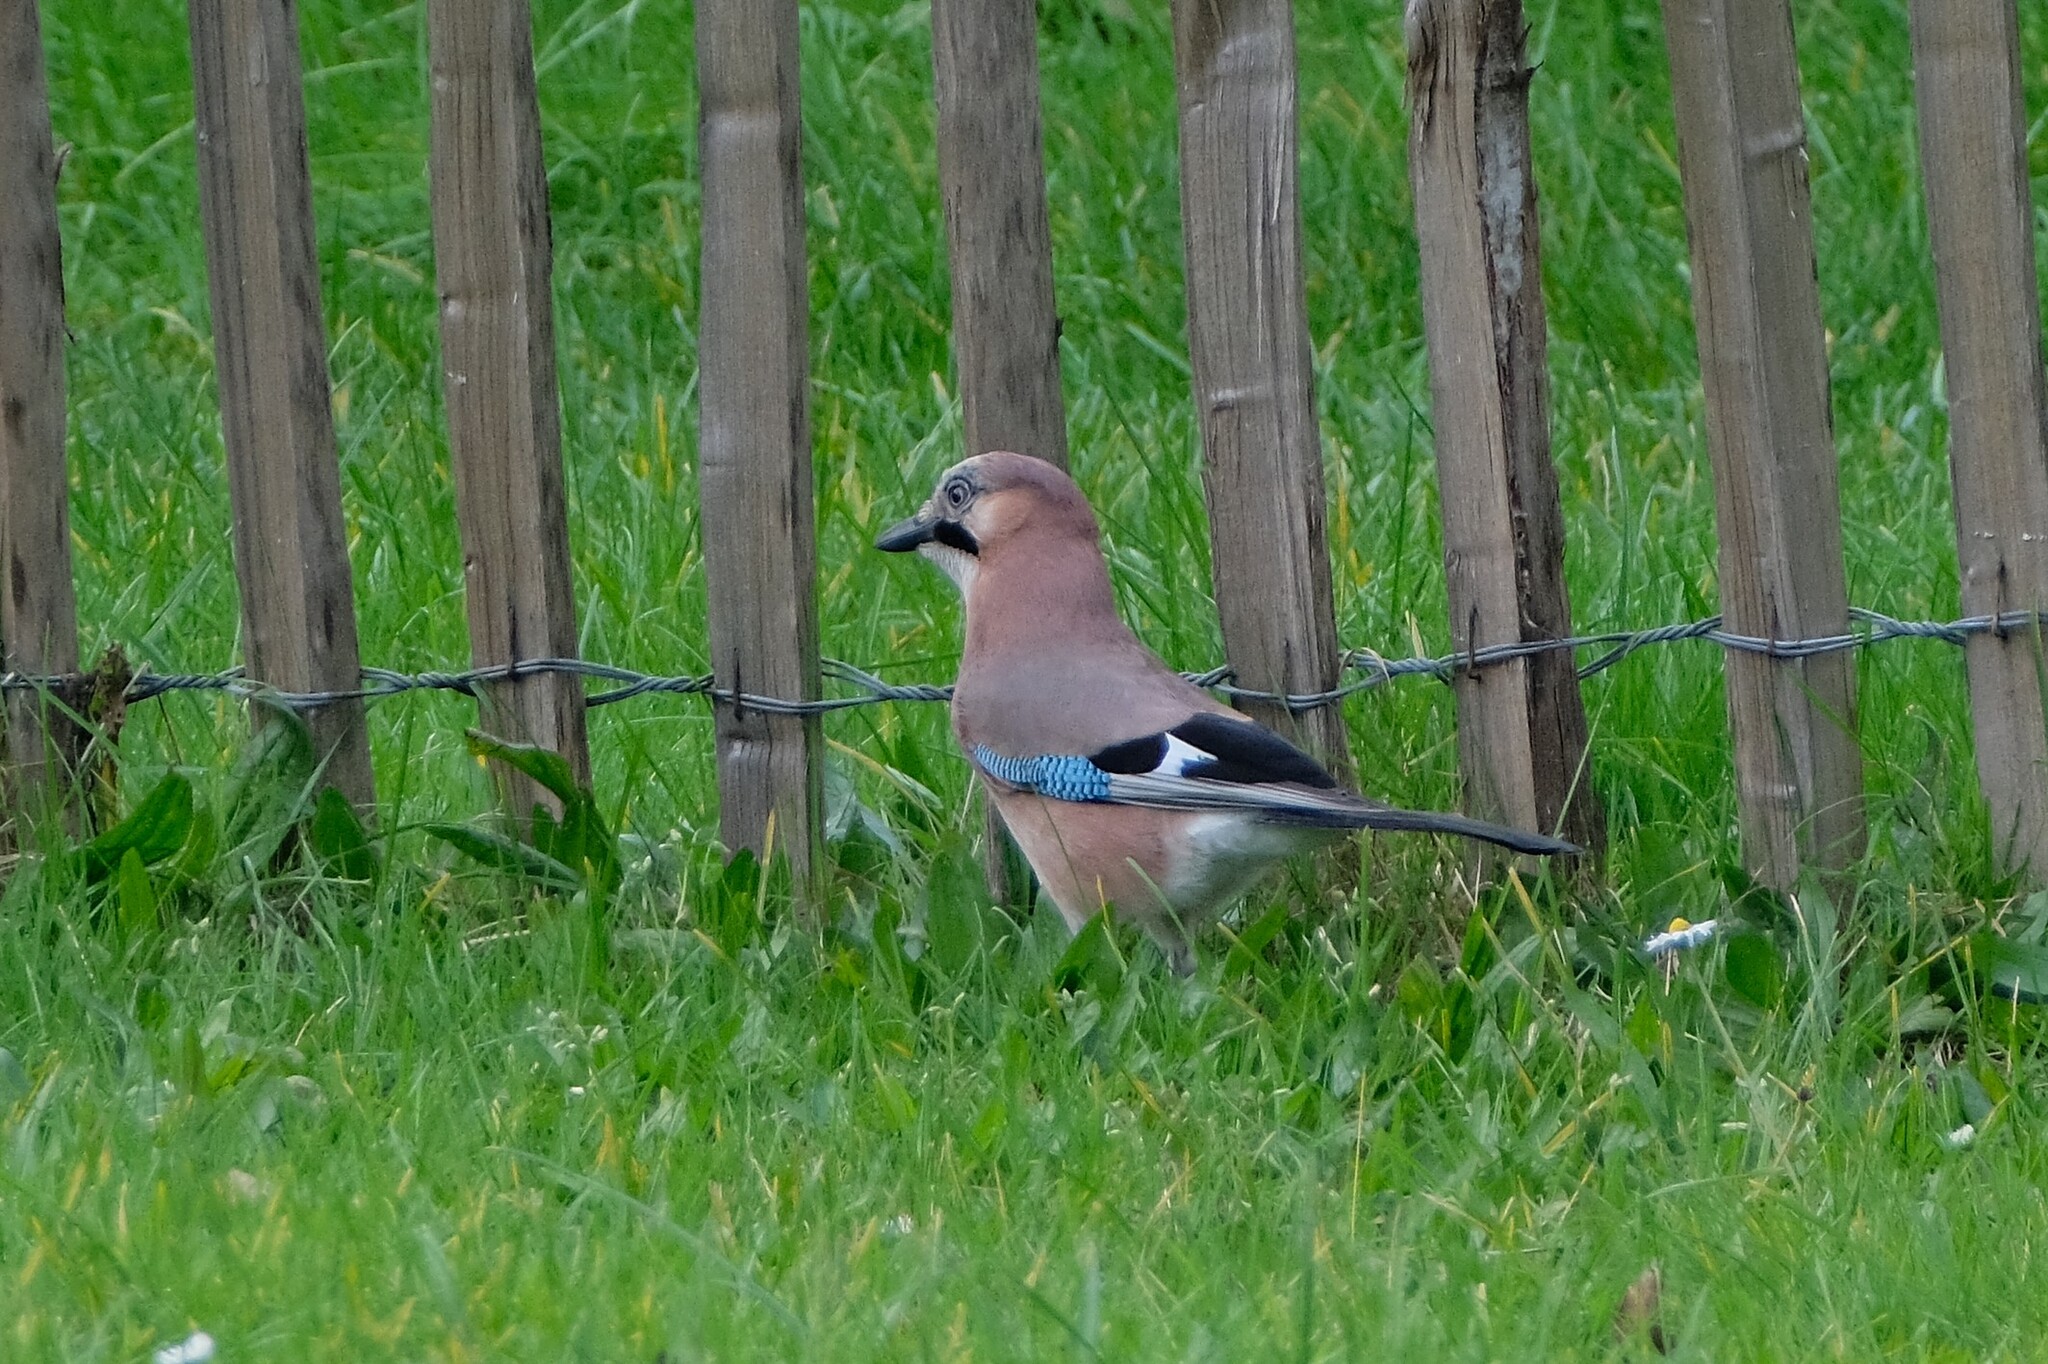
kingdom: Animalia
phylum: Chordata
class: Aves
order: Passeriformes
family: Corvidae
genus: Garrulus
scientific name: Garrulus glandarius
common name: Eurasian jay
